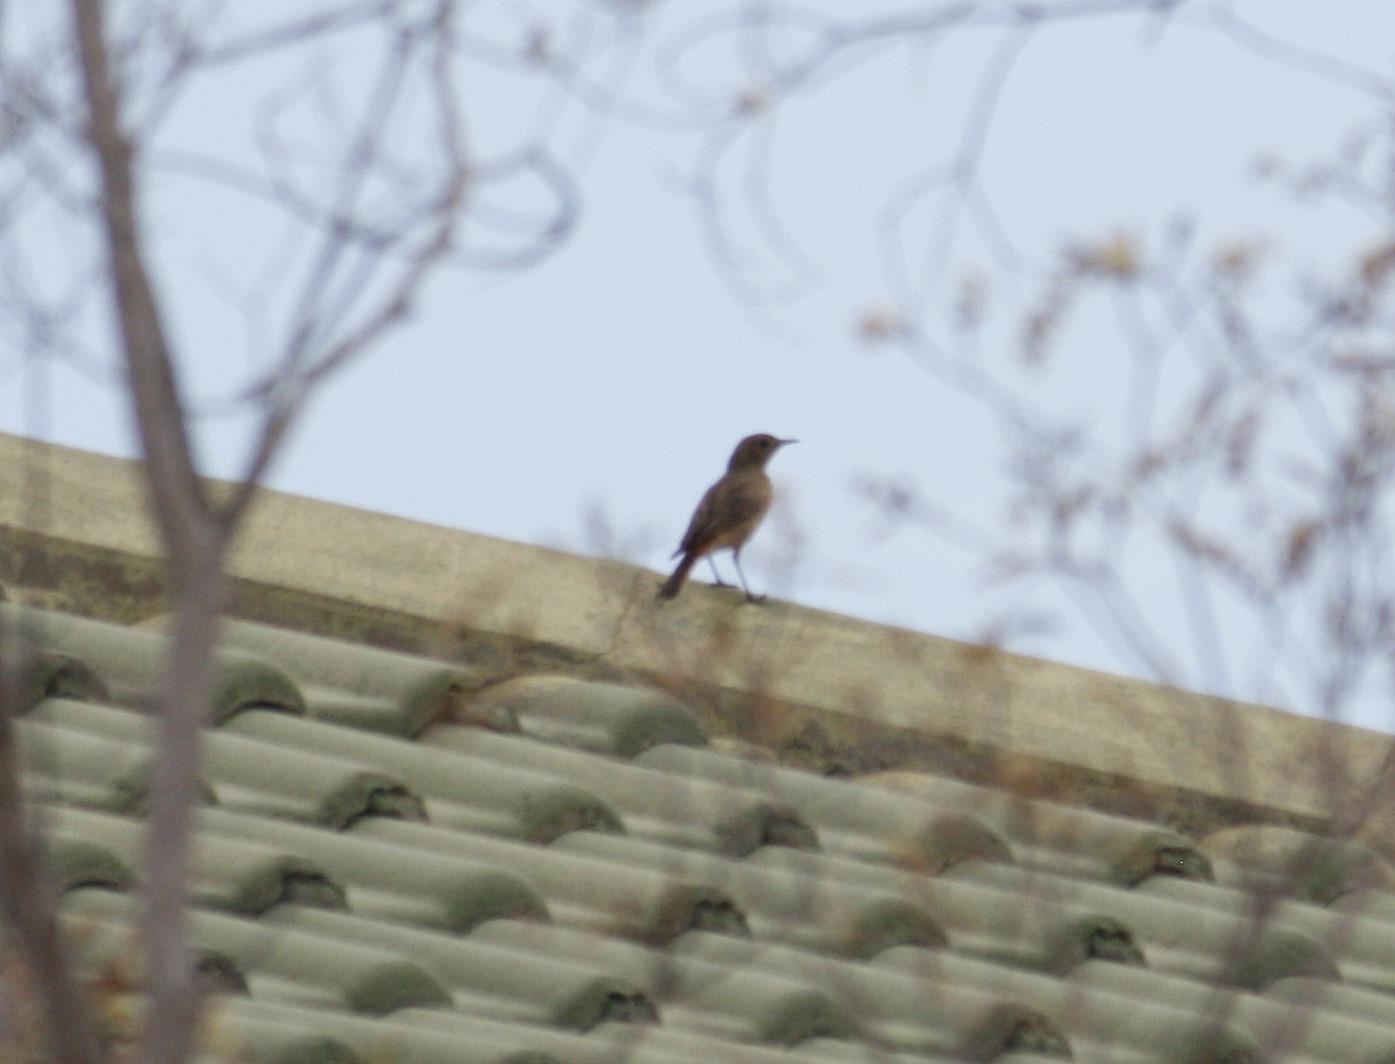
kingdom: Animalia
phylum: Chordata
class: Aves
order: Passeriformes
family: Muscicapidae
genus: Oenanthe
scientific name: Oenanthe familiaris
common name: Familiar chat
